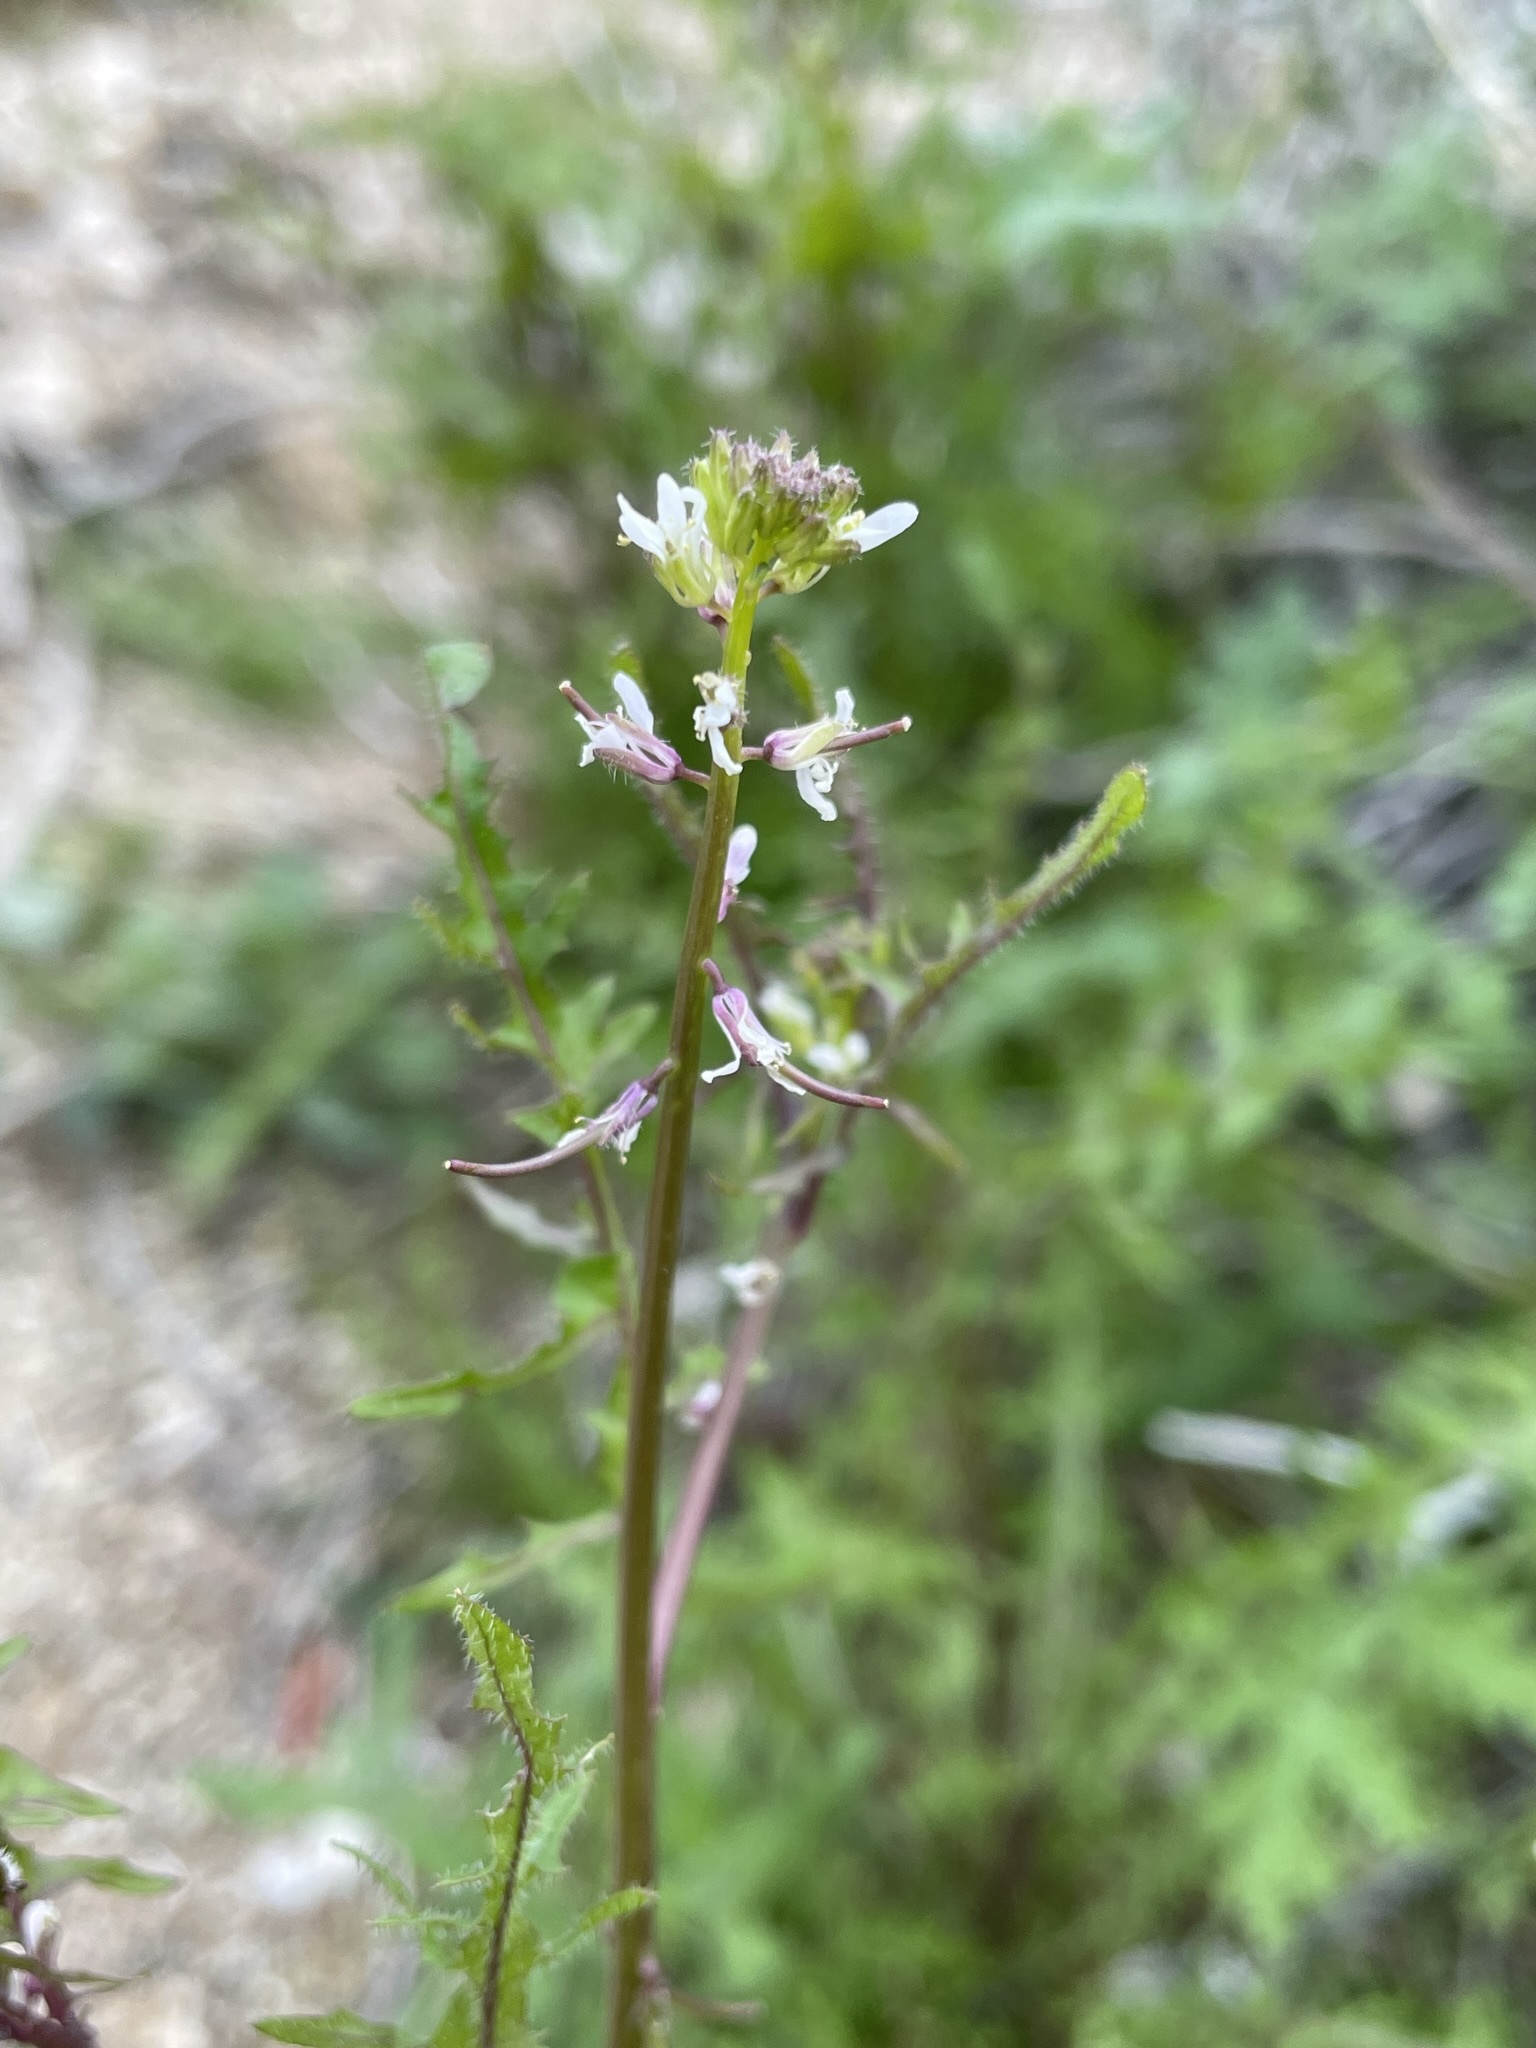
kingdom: Plantae
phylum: Tracheophyta
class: Magnoliopsida
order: Brassicales
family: Brassicaceae
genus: Streptanthus
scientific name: Streptanthus lasiophyllus
